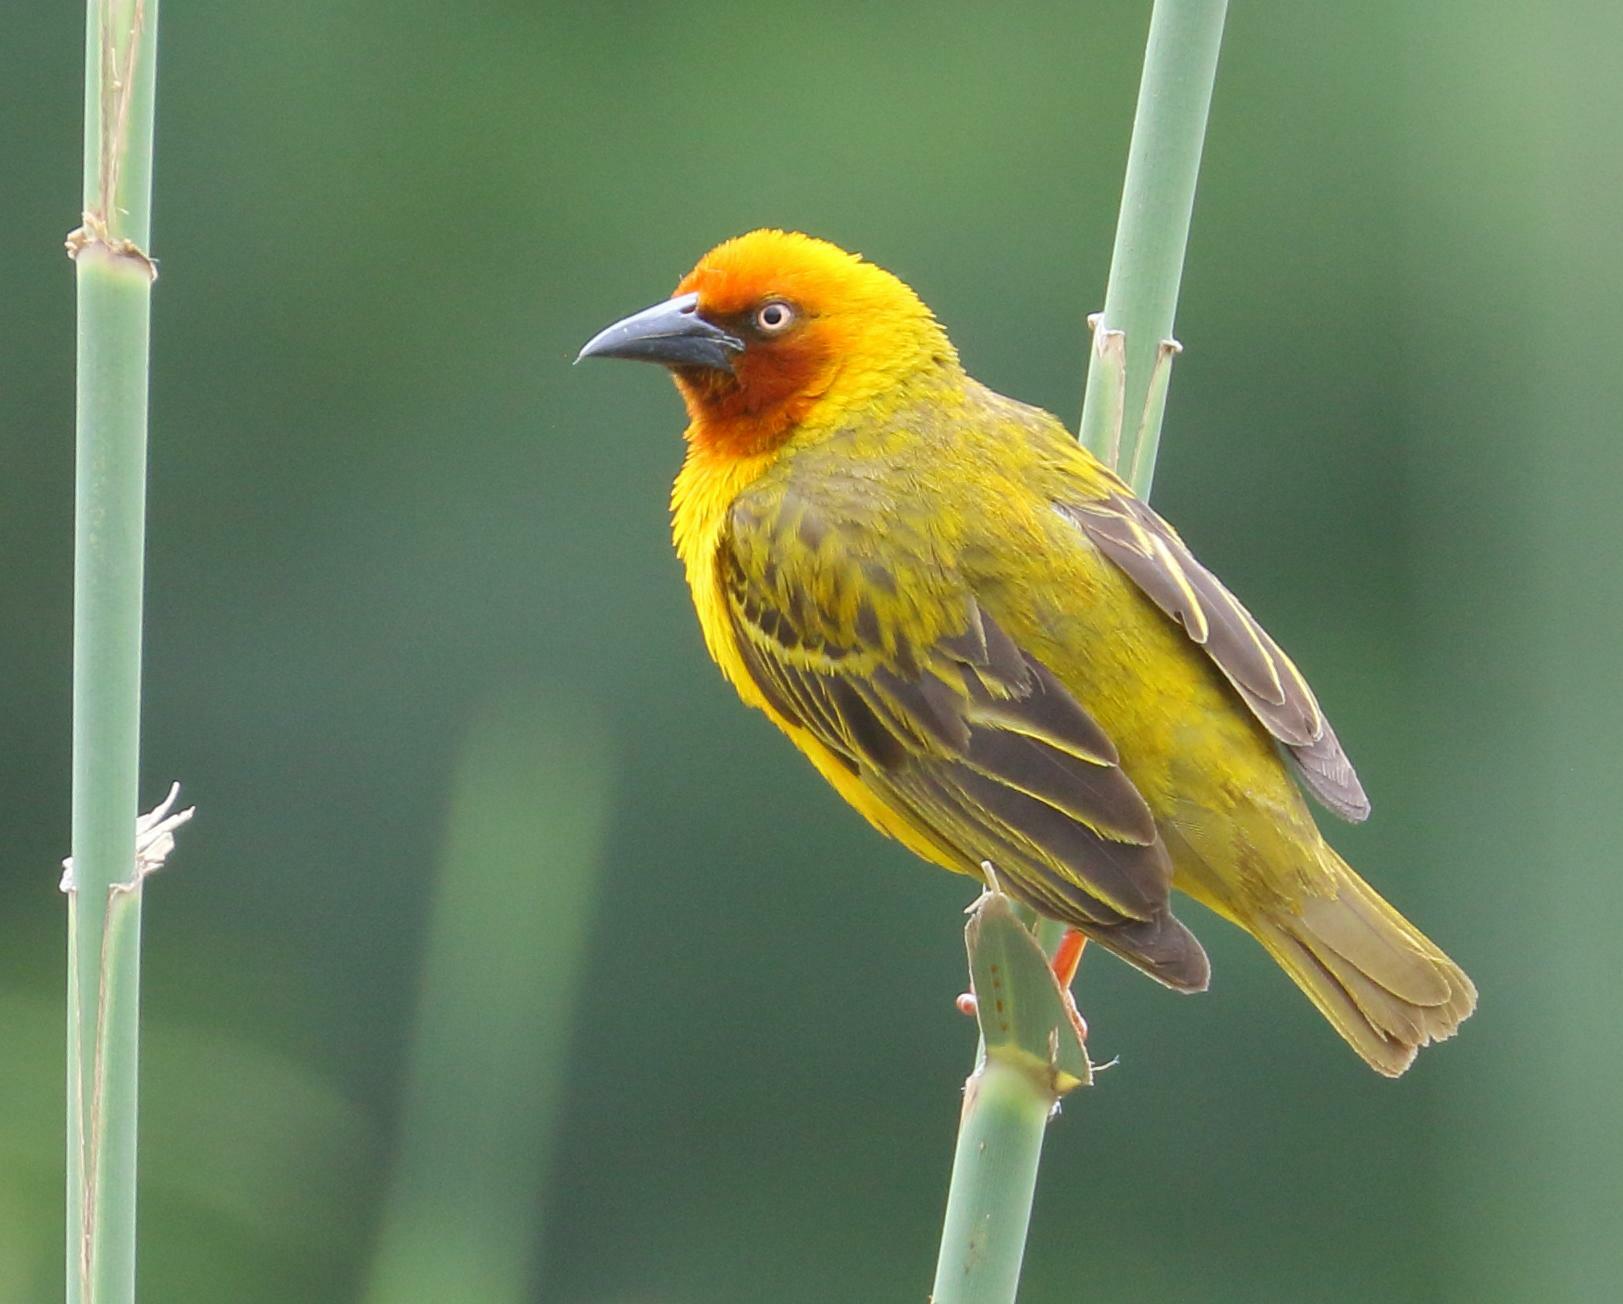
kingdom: Animalia
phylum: Chordata
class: Aves
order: Passeriformes
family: Ploceidae
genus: Ploceus
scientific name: Ploceus capensis
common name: Cape weaver
